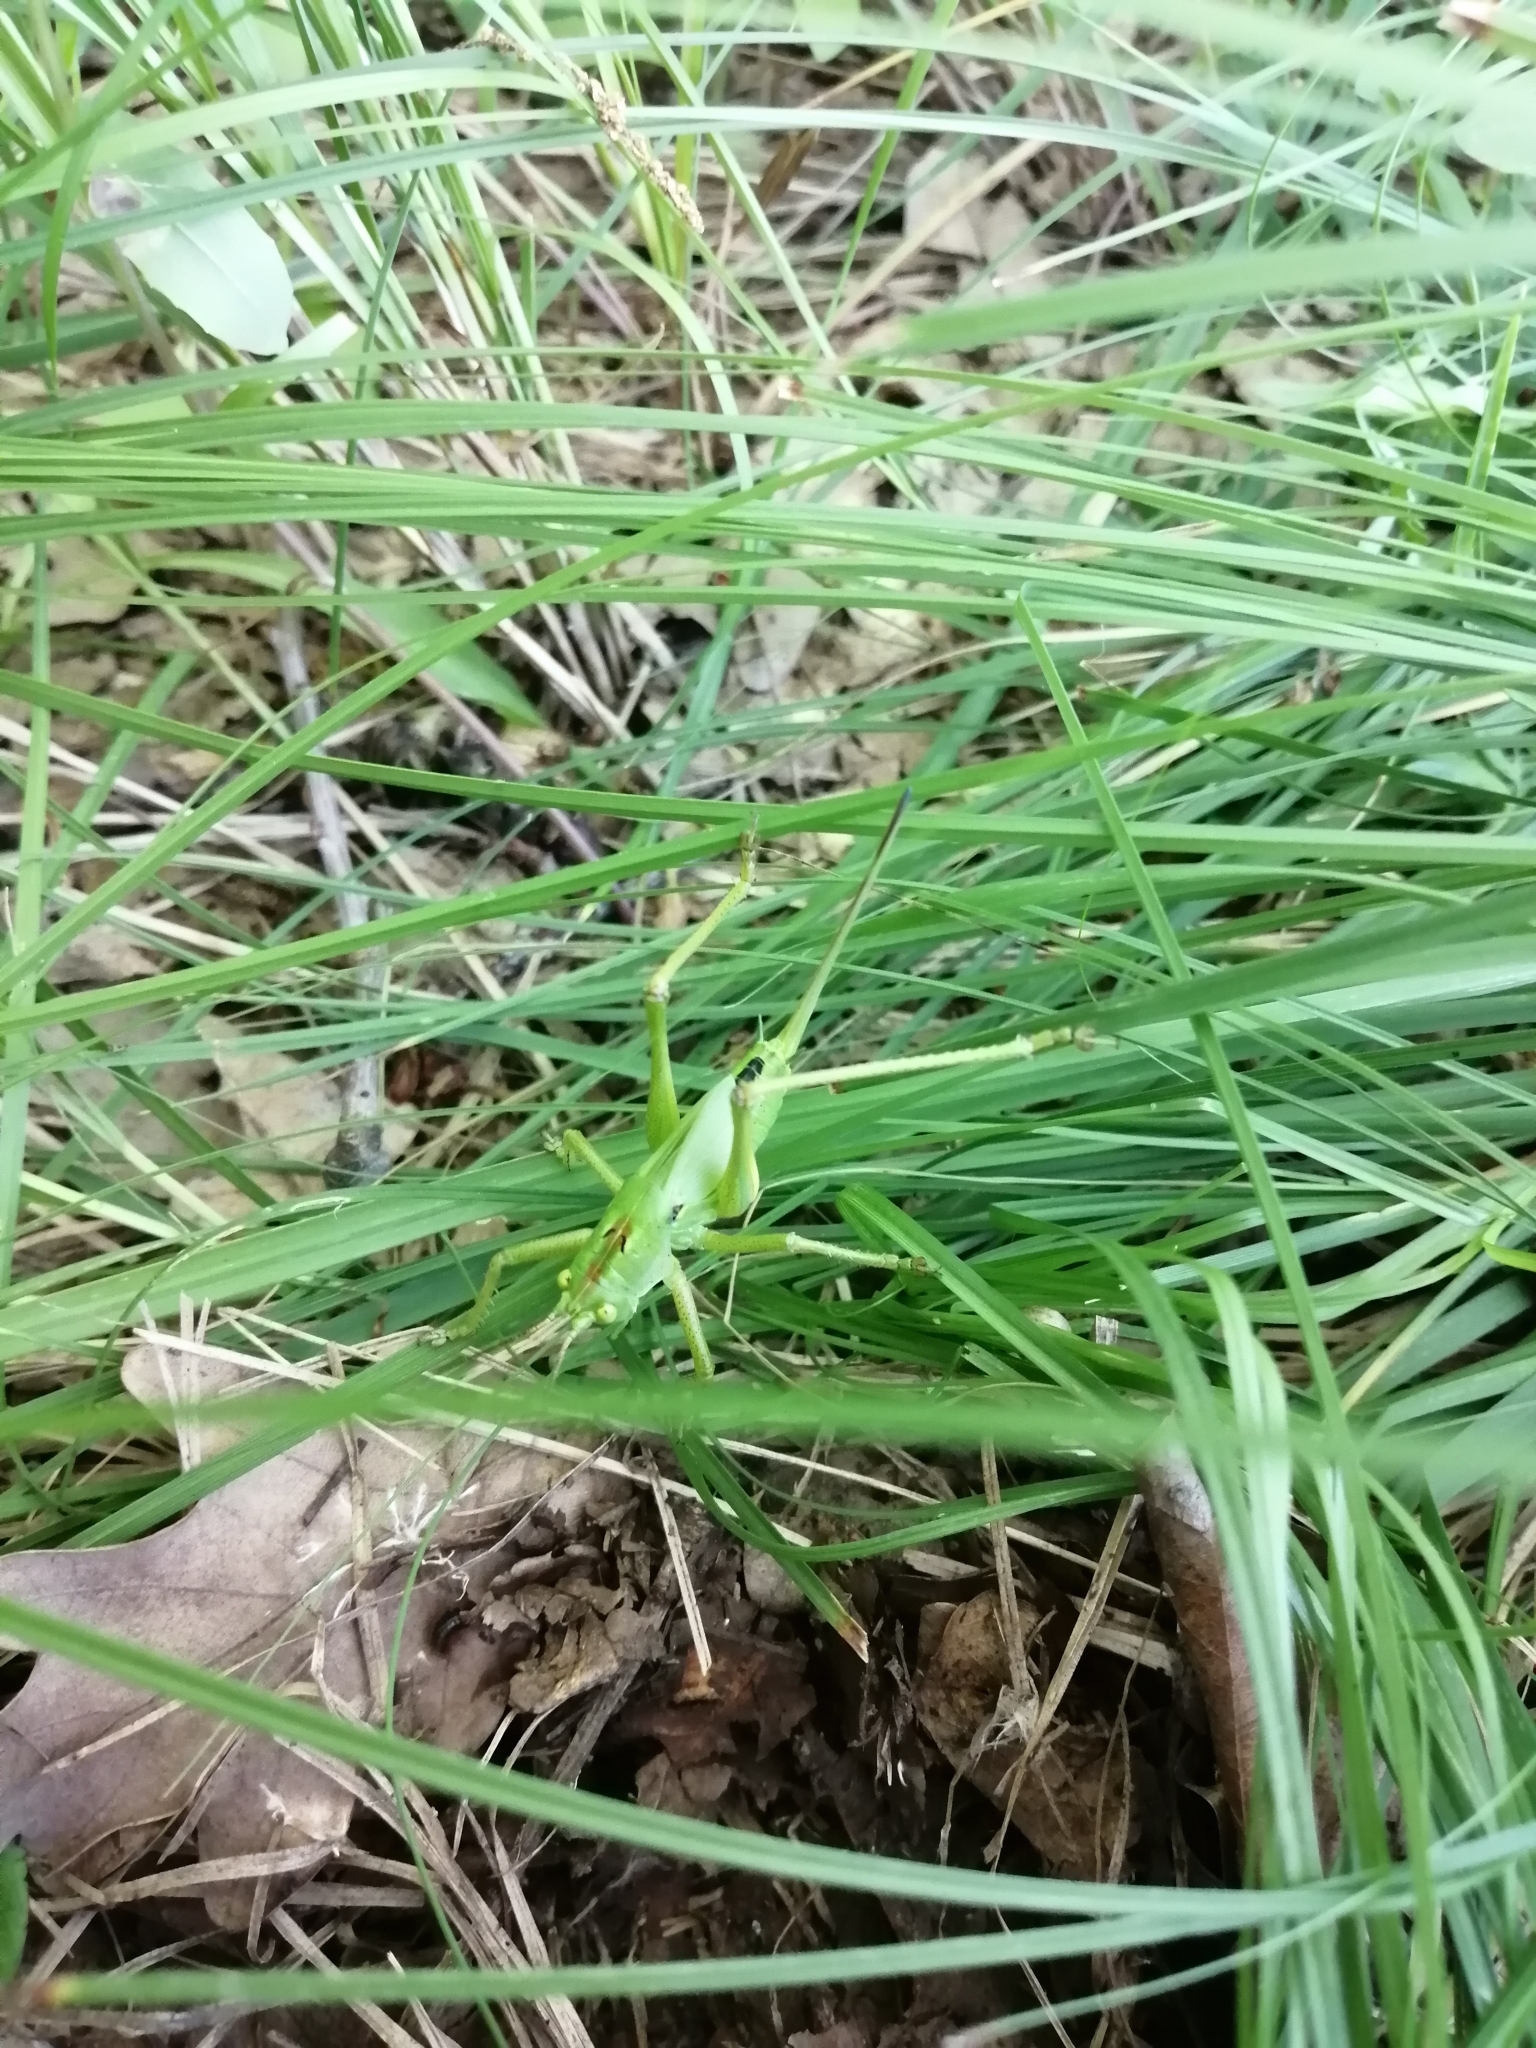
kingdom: Animalia
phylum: Arthropoda
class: Insecta
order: Orthoptera
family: Tettigoniidae
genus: Tettigonia
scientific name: Tettigonia viridissima
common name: Great green bush-cricket
